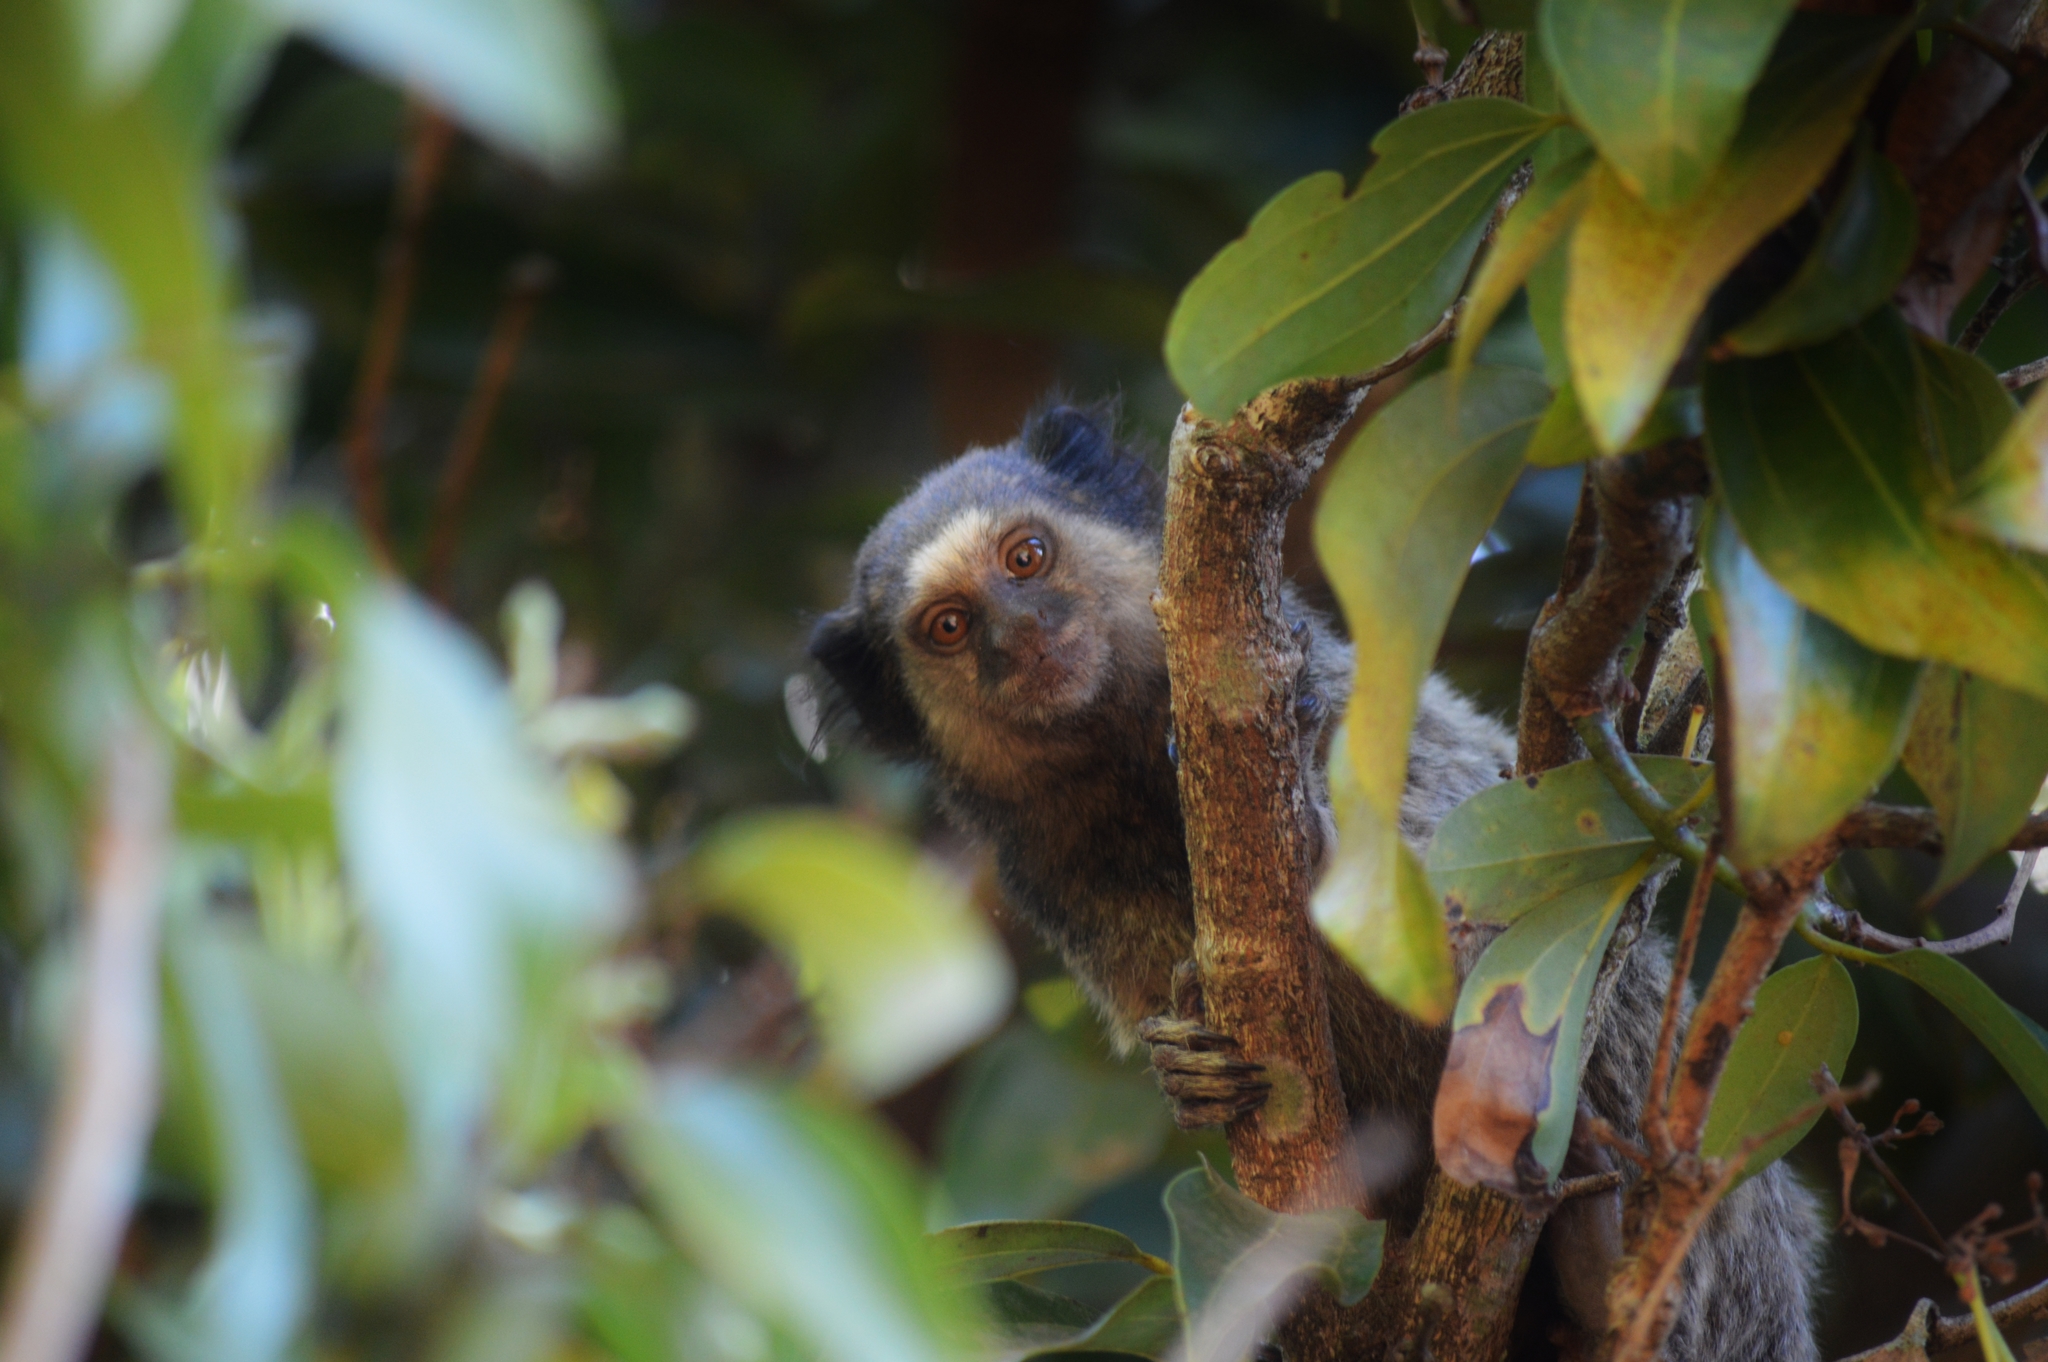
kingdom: Animalia
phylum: Chordata
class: Mammalia
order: Primates
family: Callitrichidae
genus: Callithrix
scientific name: Callithrix penicillata
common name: Black-tufted marmoset
